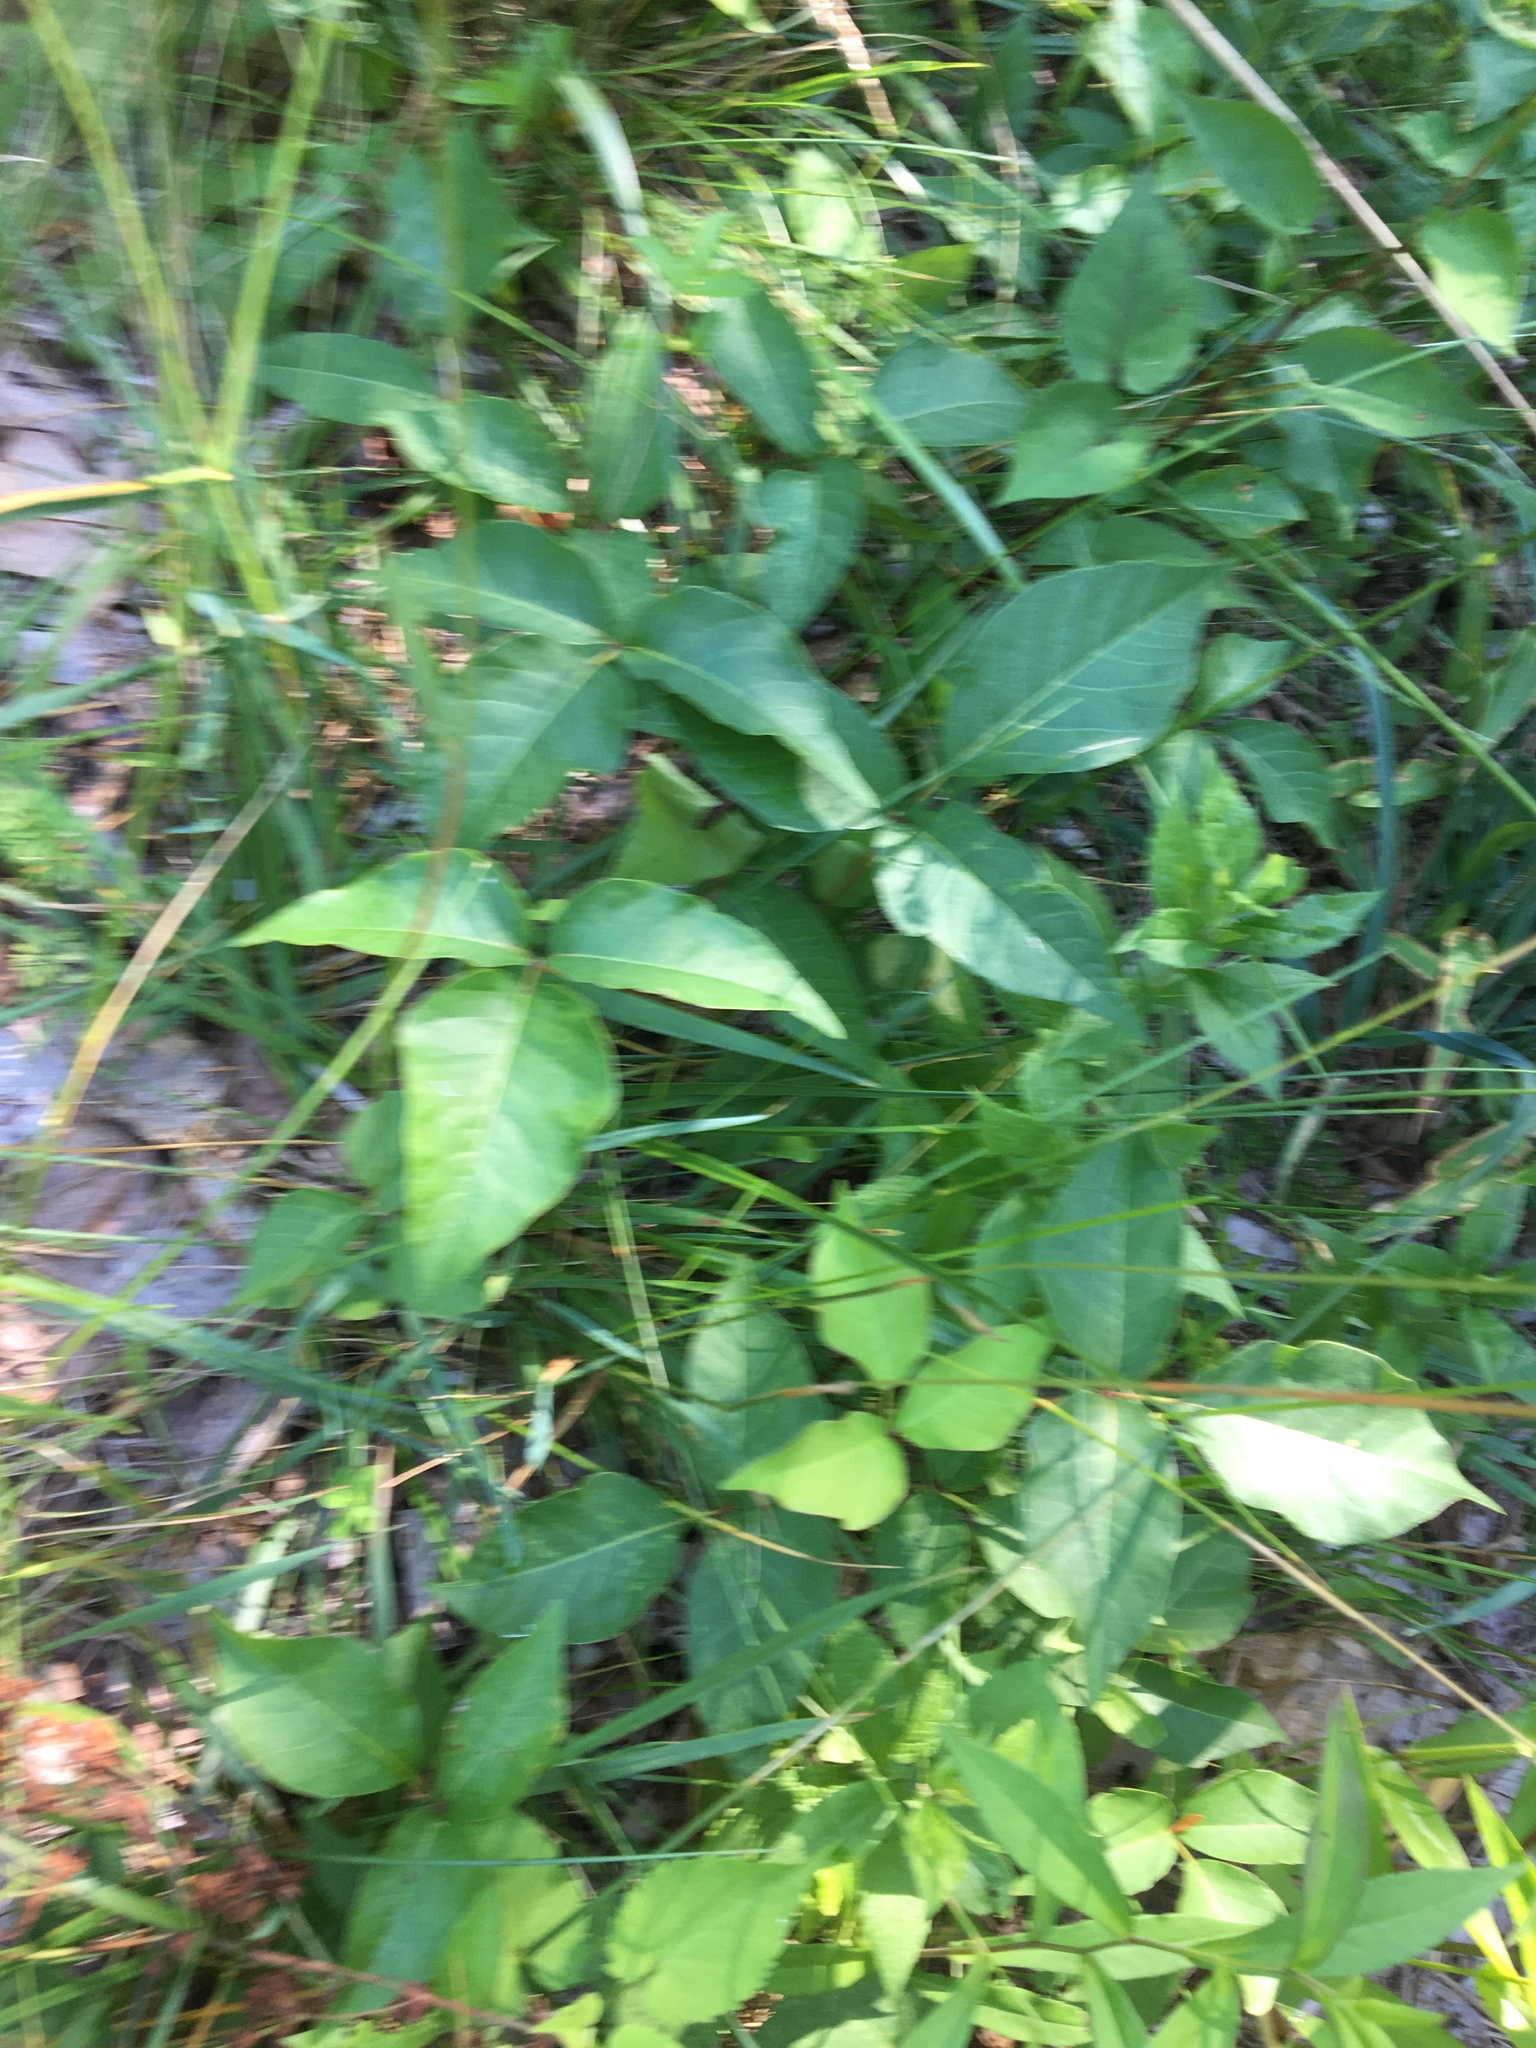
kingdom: Plantae
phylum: Tracheophyta
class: Magnoliopsida
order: Sapindales
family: Anacardiaceae
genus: Toxicodendron
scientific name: Toxicodendron radicans
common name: Poison ivy
